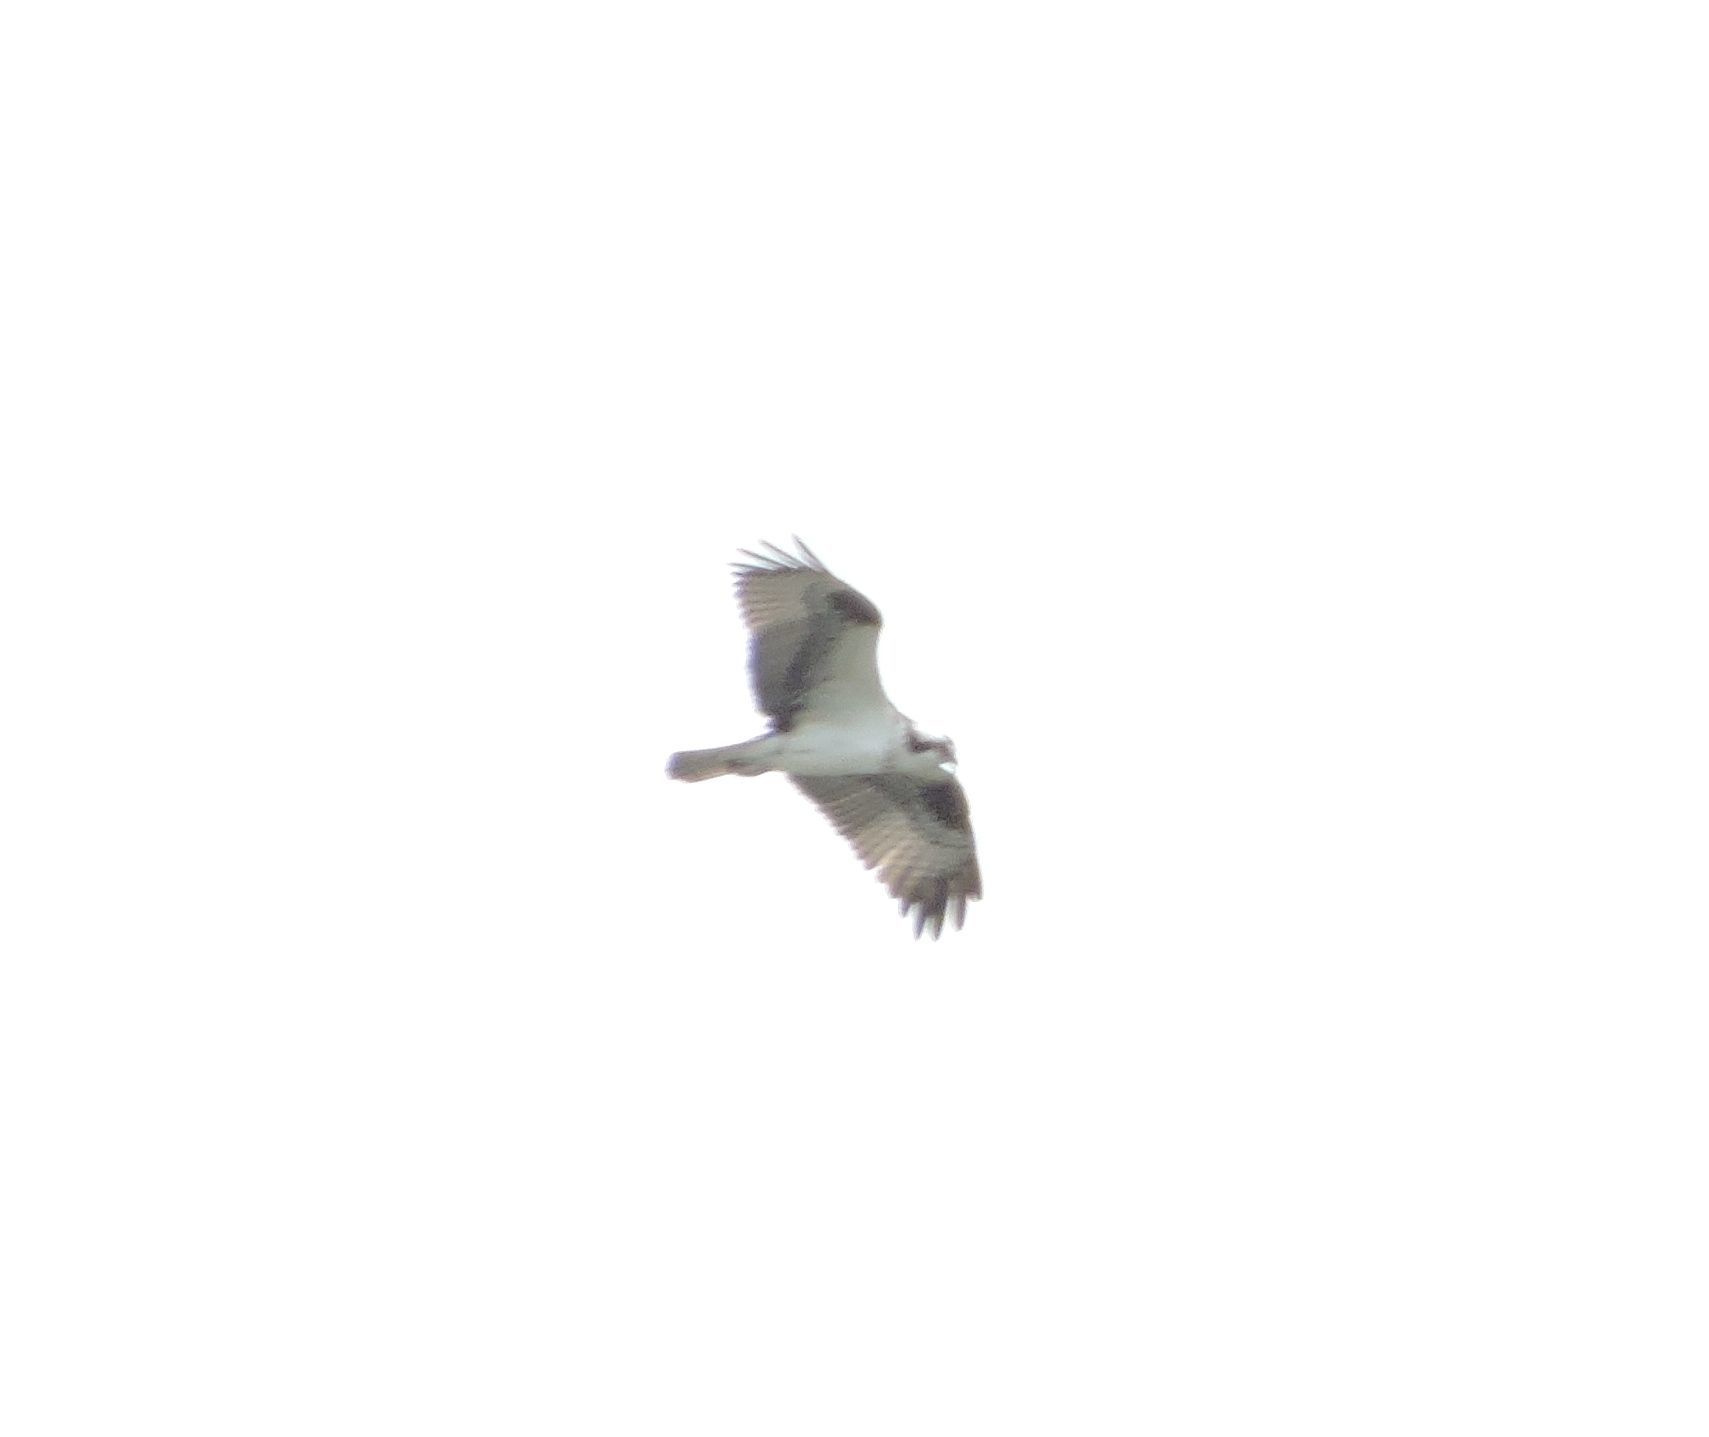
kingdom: Animalia
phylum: Chordata
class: Aves
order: Accipitriformes
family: Pandionidae
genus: Pandion
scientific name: Pandion haliaetus
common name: Osprey
